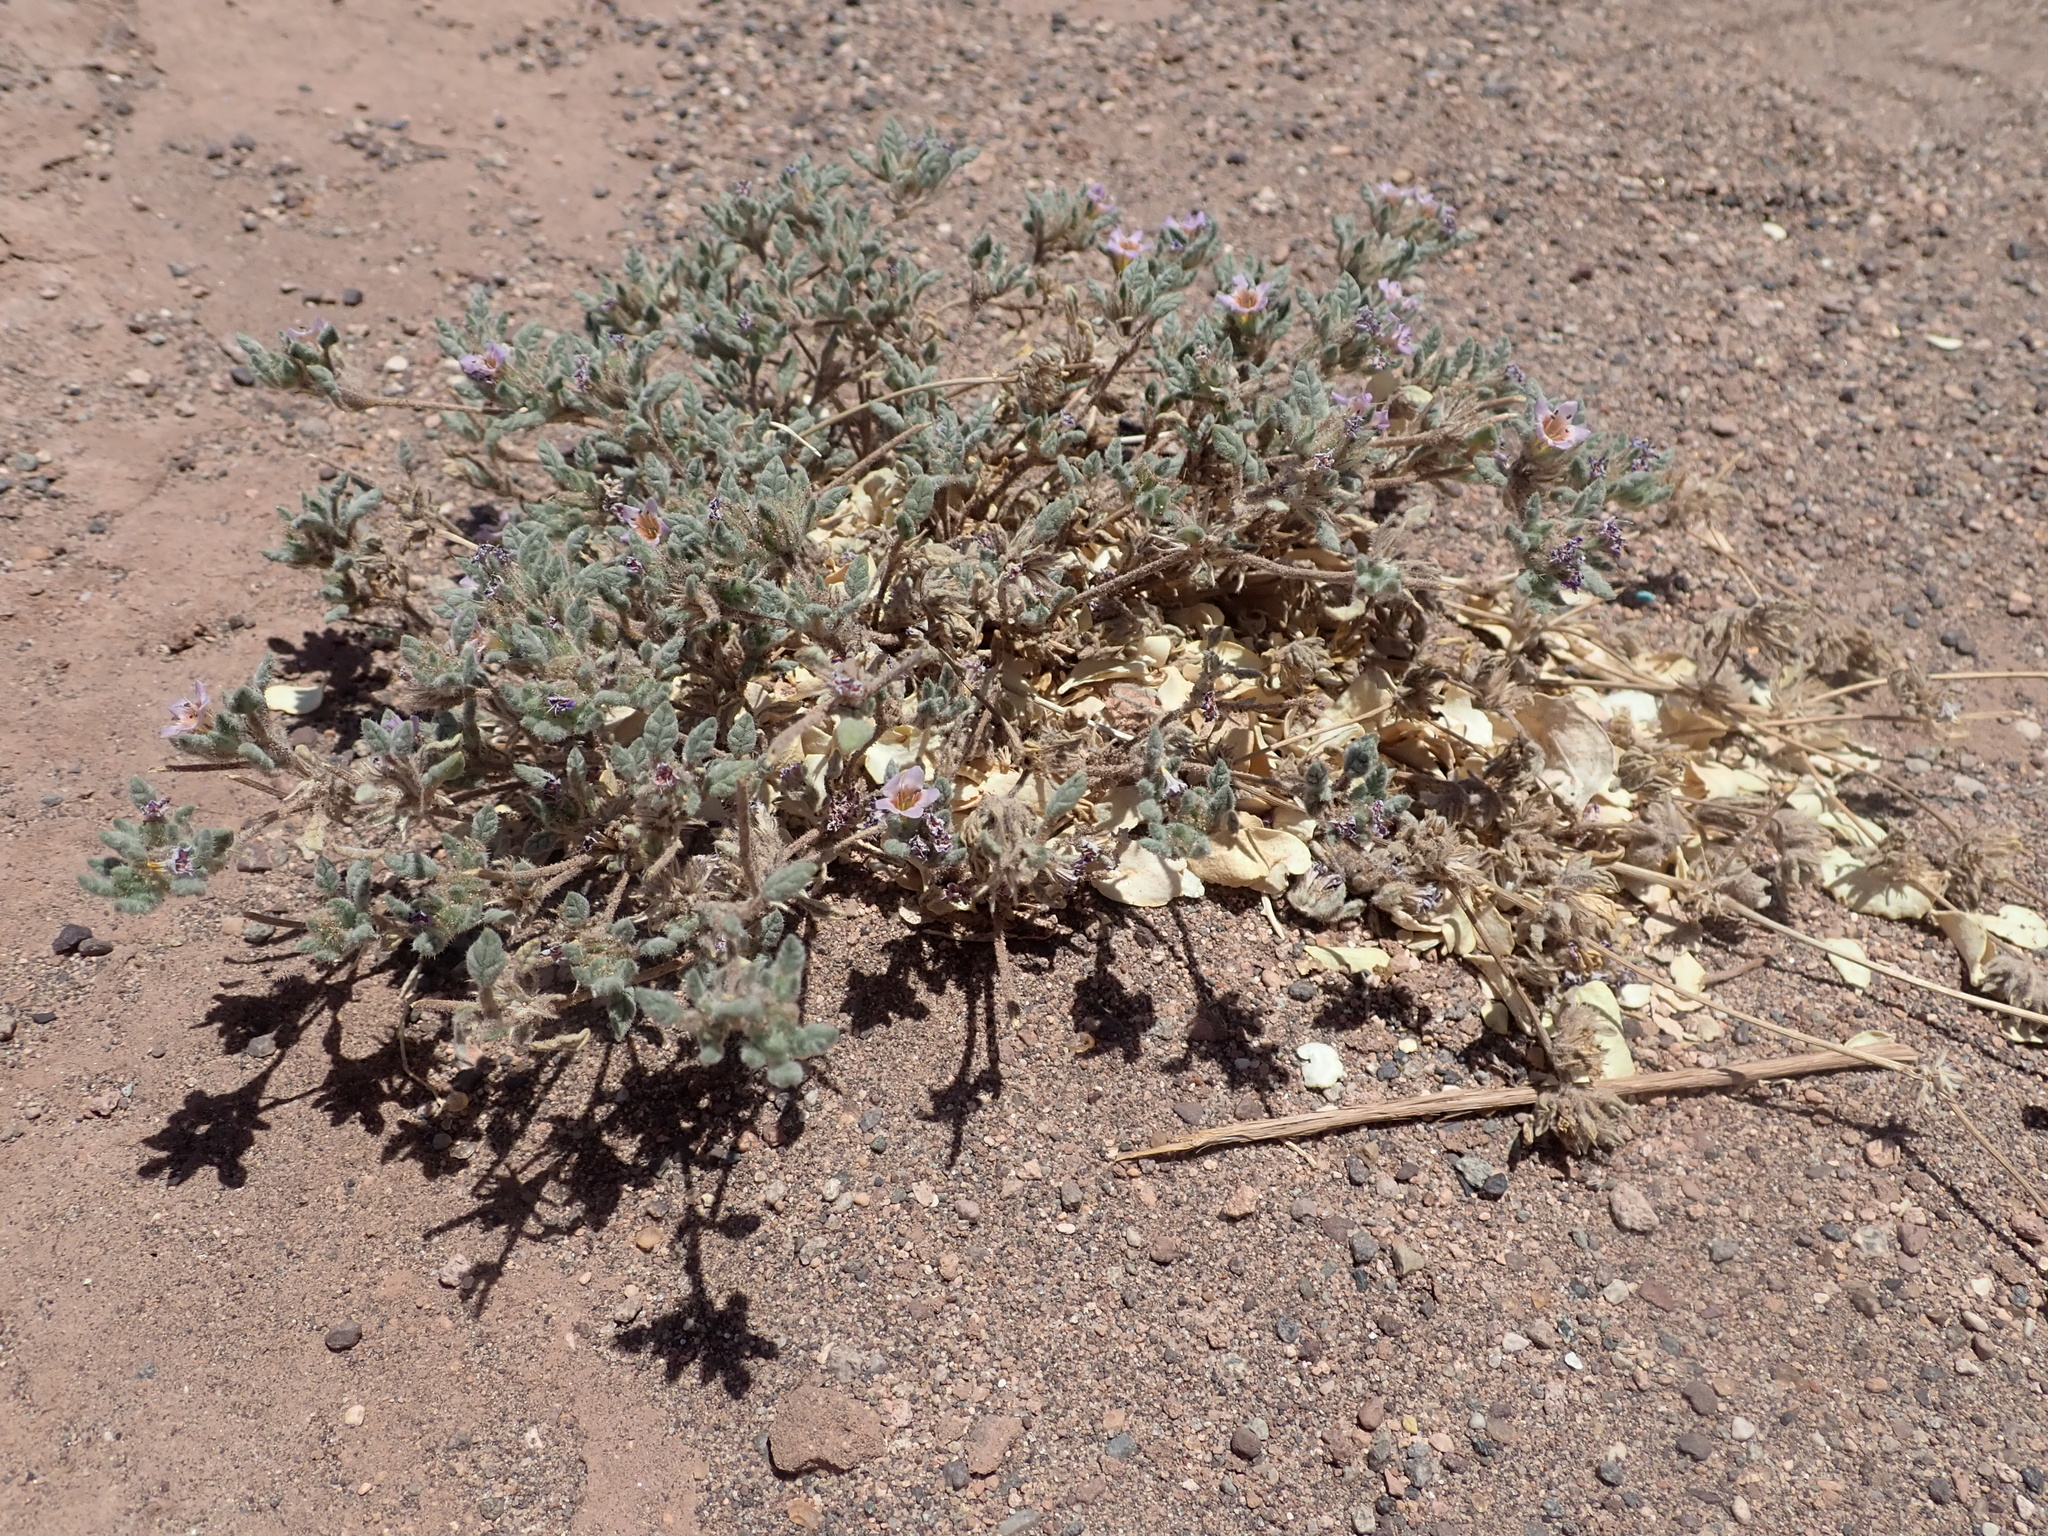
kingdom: Plantae
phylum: Tracheophyta
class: Magnoliopsida
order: Boraginales
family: Ehretiaceae
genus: Tiquilia
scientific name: Tiquilia atacamensis
